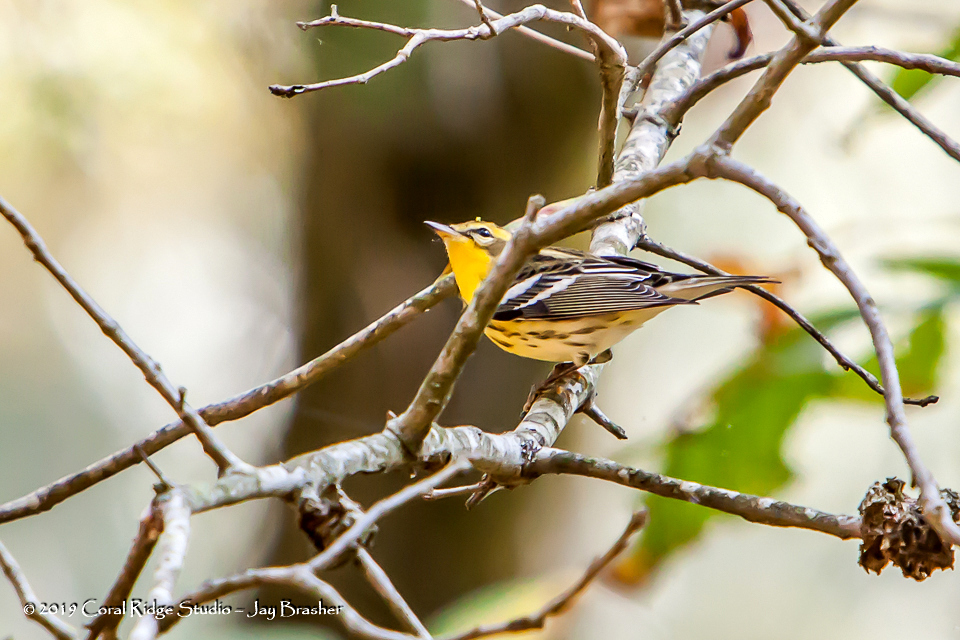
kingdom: Animalia
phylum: Chordata
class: Aves
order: Passeriformes
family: Parulidae
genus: Setophaga
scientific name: Setophaga fusca
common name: Blackburnian warbler
